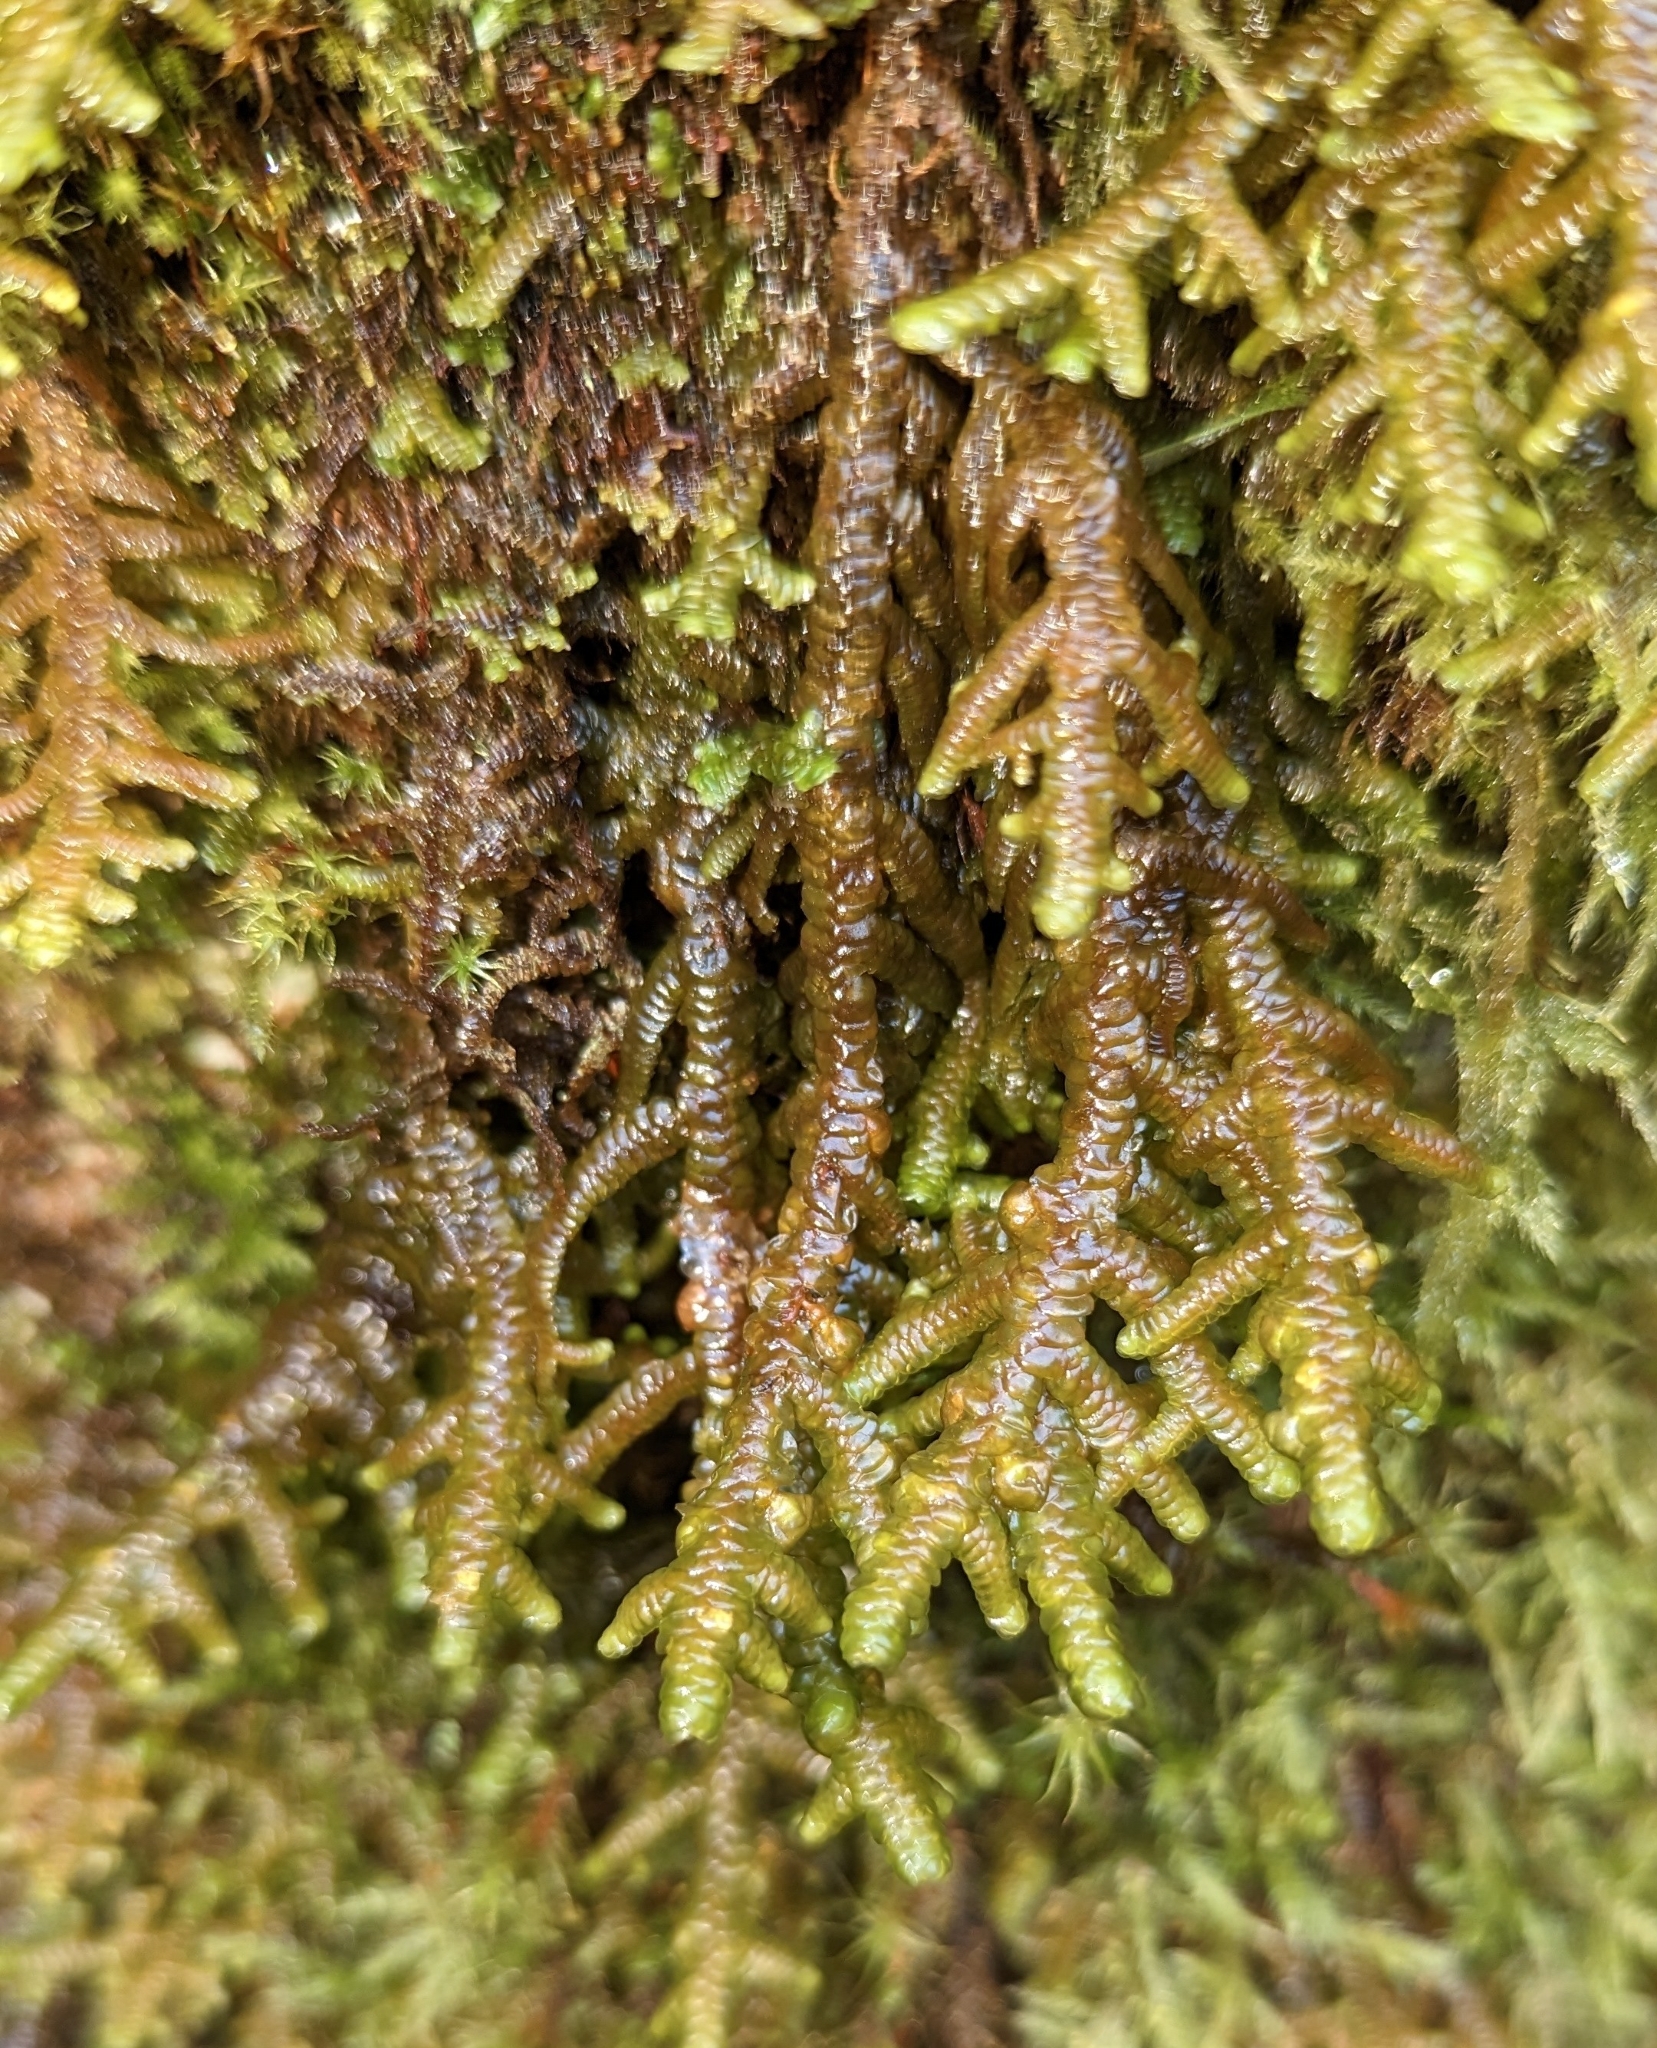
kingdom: Plantae
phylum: Marchantiophyta
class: Jungermanniopsida
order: Porellales
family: Porellaceae
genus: Porella
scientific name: Porella navicularis
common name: Tree ruffle liverwort
